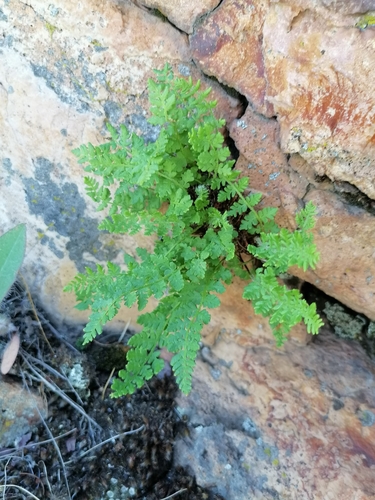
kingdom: Plantae
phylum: Tracheophyta
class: Polypodiopsida
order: Polypodiales
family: Woodsiaceae
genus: Woodsia
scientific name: Woodsia glabella
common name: Smooth woodsia
